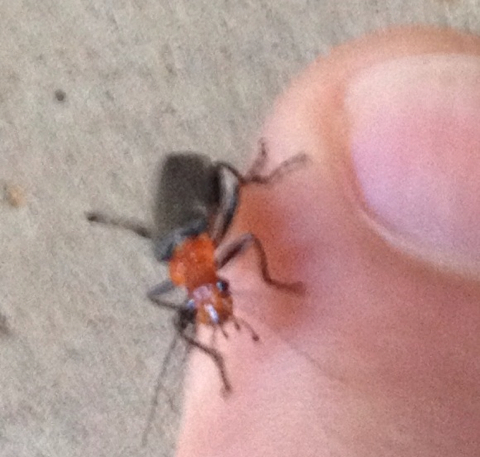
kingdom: Animalia
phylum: Arthropoda
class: Insecta
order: Coleoptera
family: Cantharidae
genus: Podabrus
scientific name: Podabrus pruinosus
